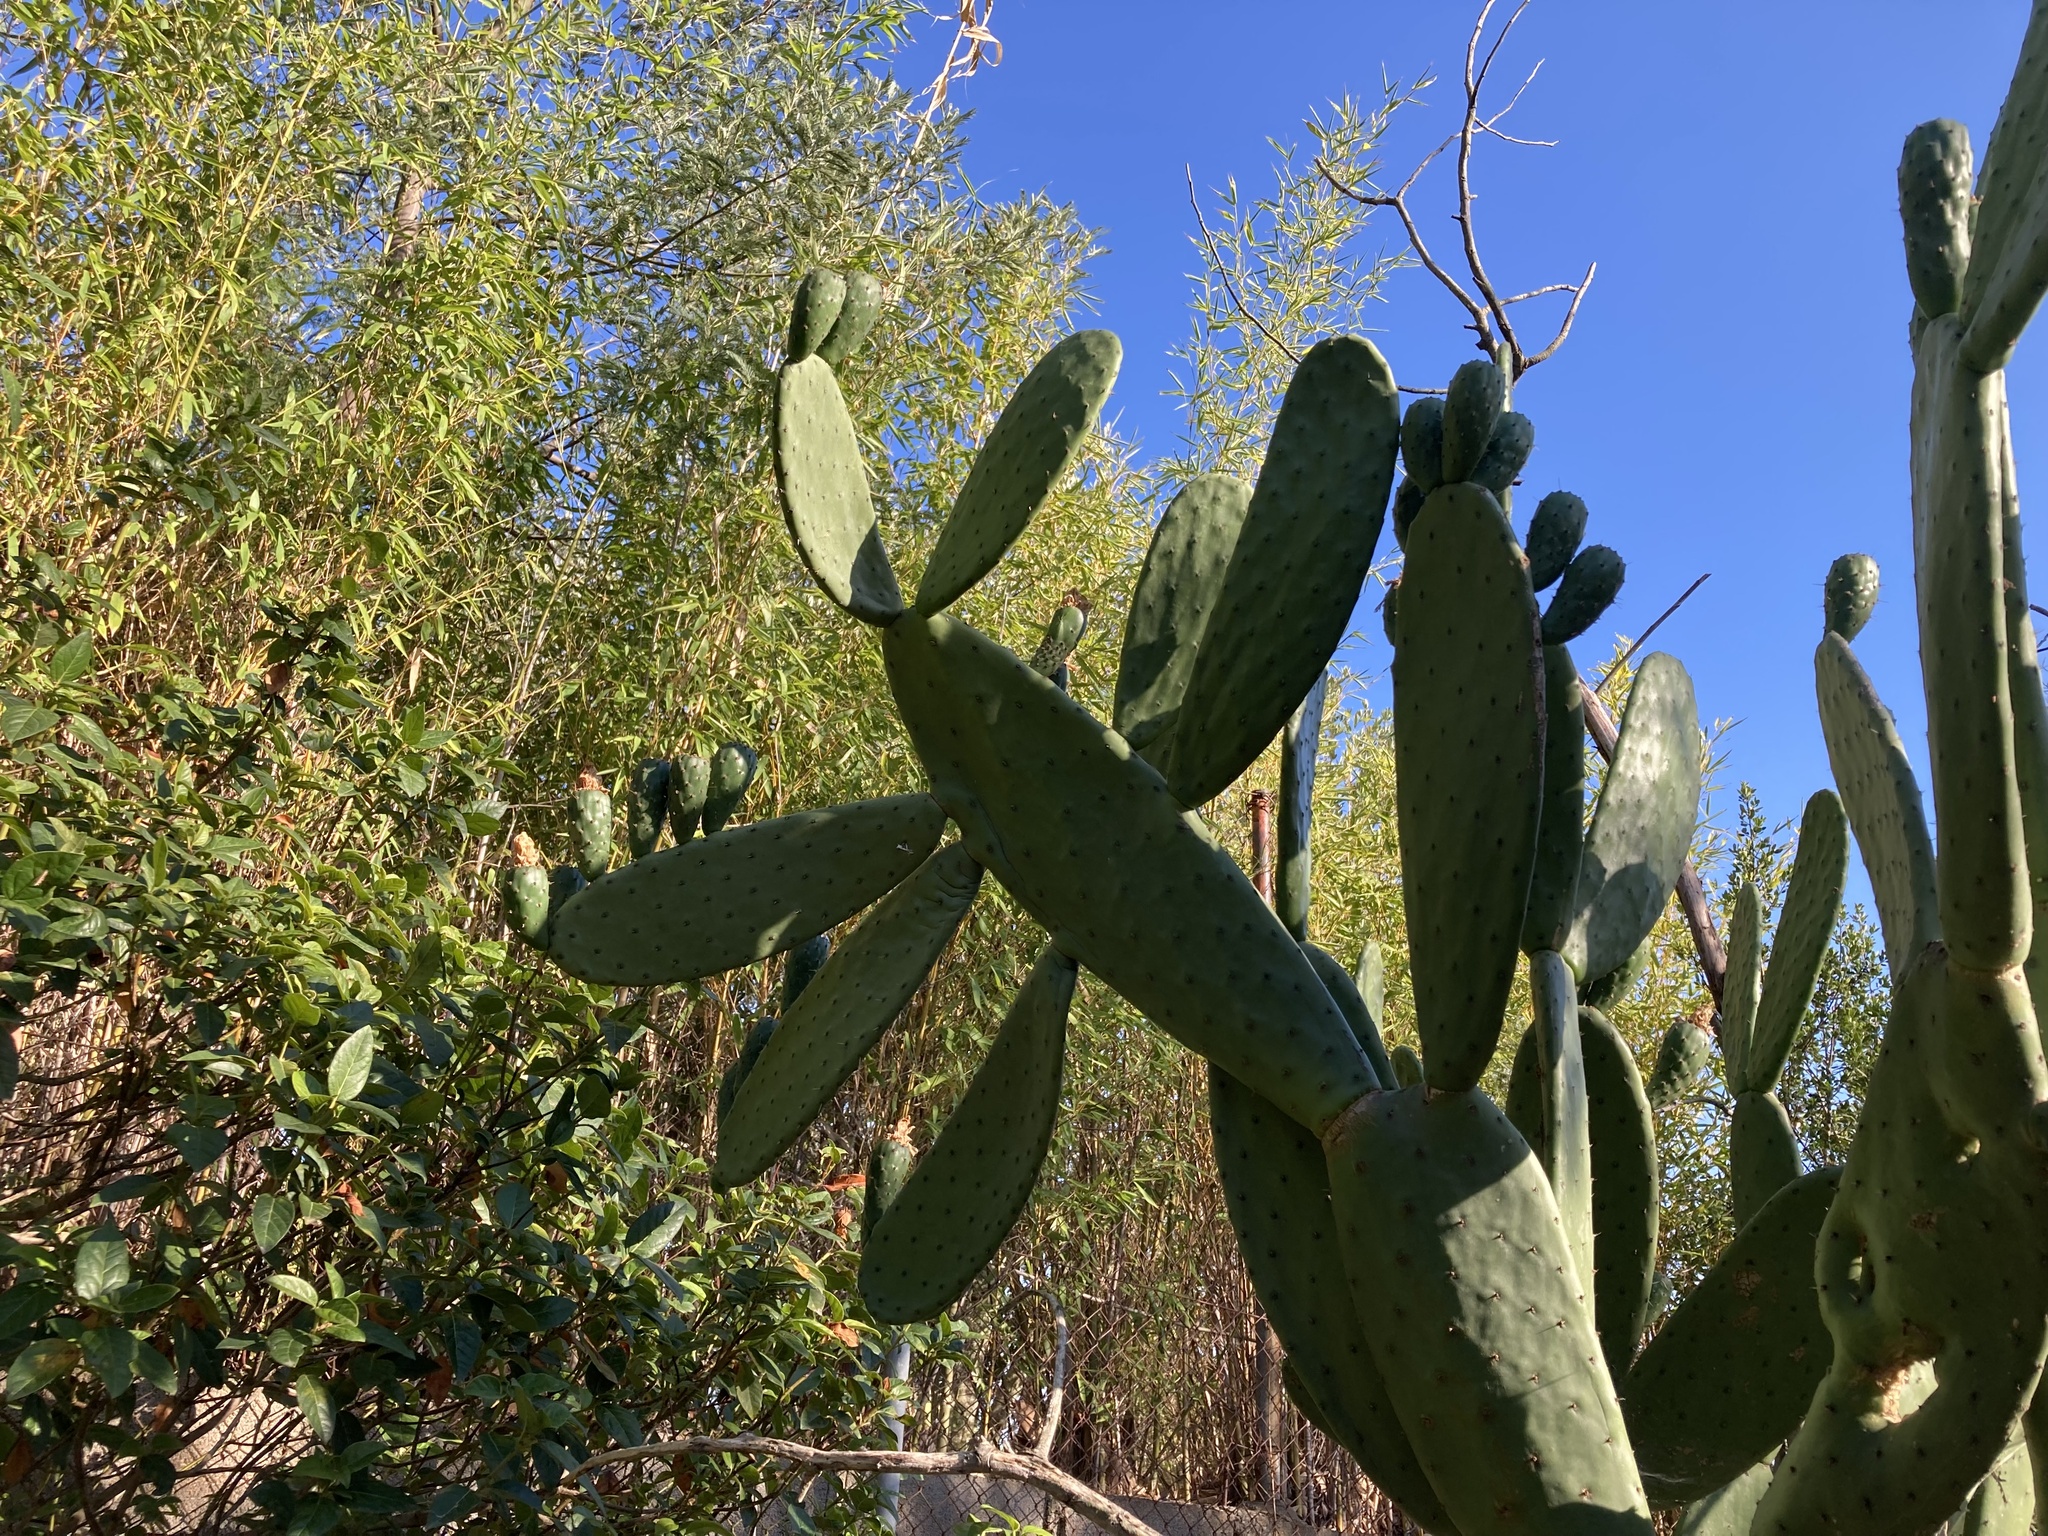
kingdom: Plantae
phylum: Tracheophyta
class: Magnoliopsida
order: Caryophyllales
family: Cactaceae
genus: Opuntia
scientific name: Opuntia ficus-indica
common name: Barbary fig
